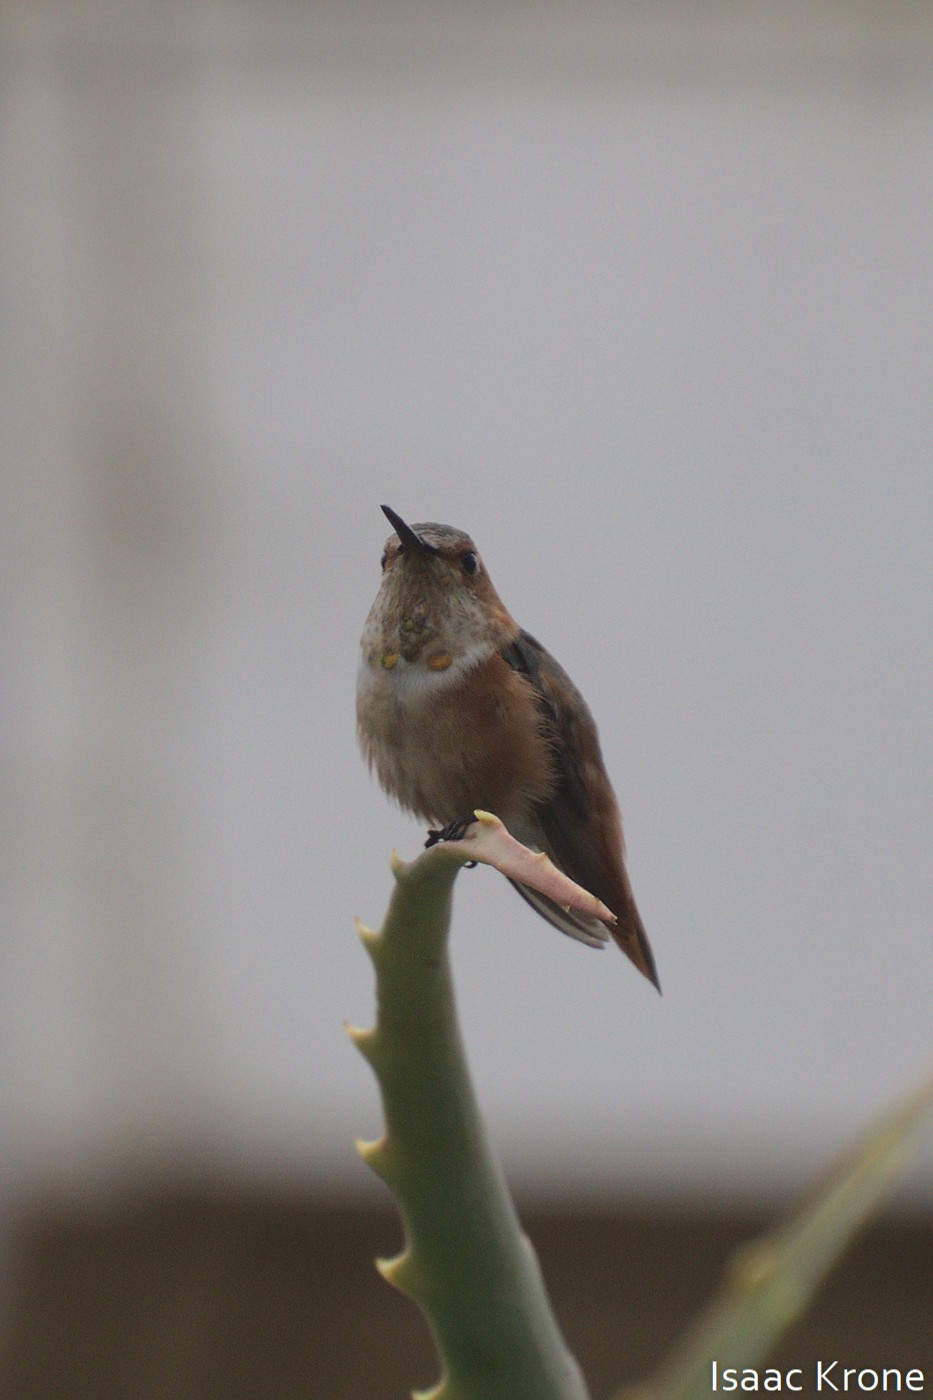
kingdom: Animalia
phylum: Chordata
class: Aves
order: Apodiformes
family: Trochilidae
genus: Selasphorus
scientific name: Selasphorus sasin
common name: Allen's hummingbird
